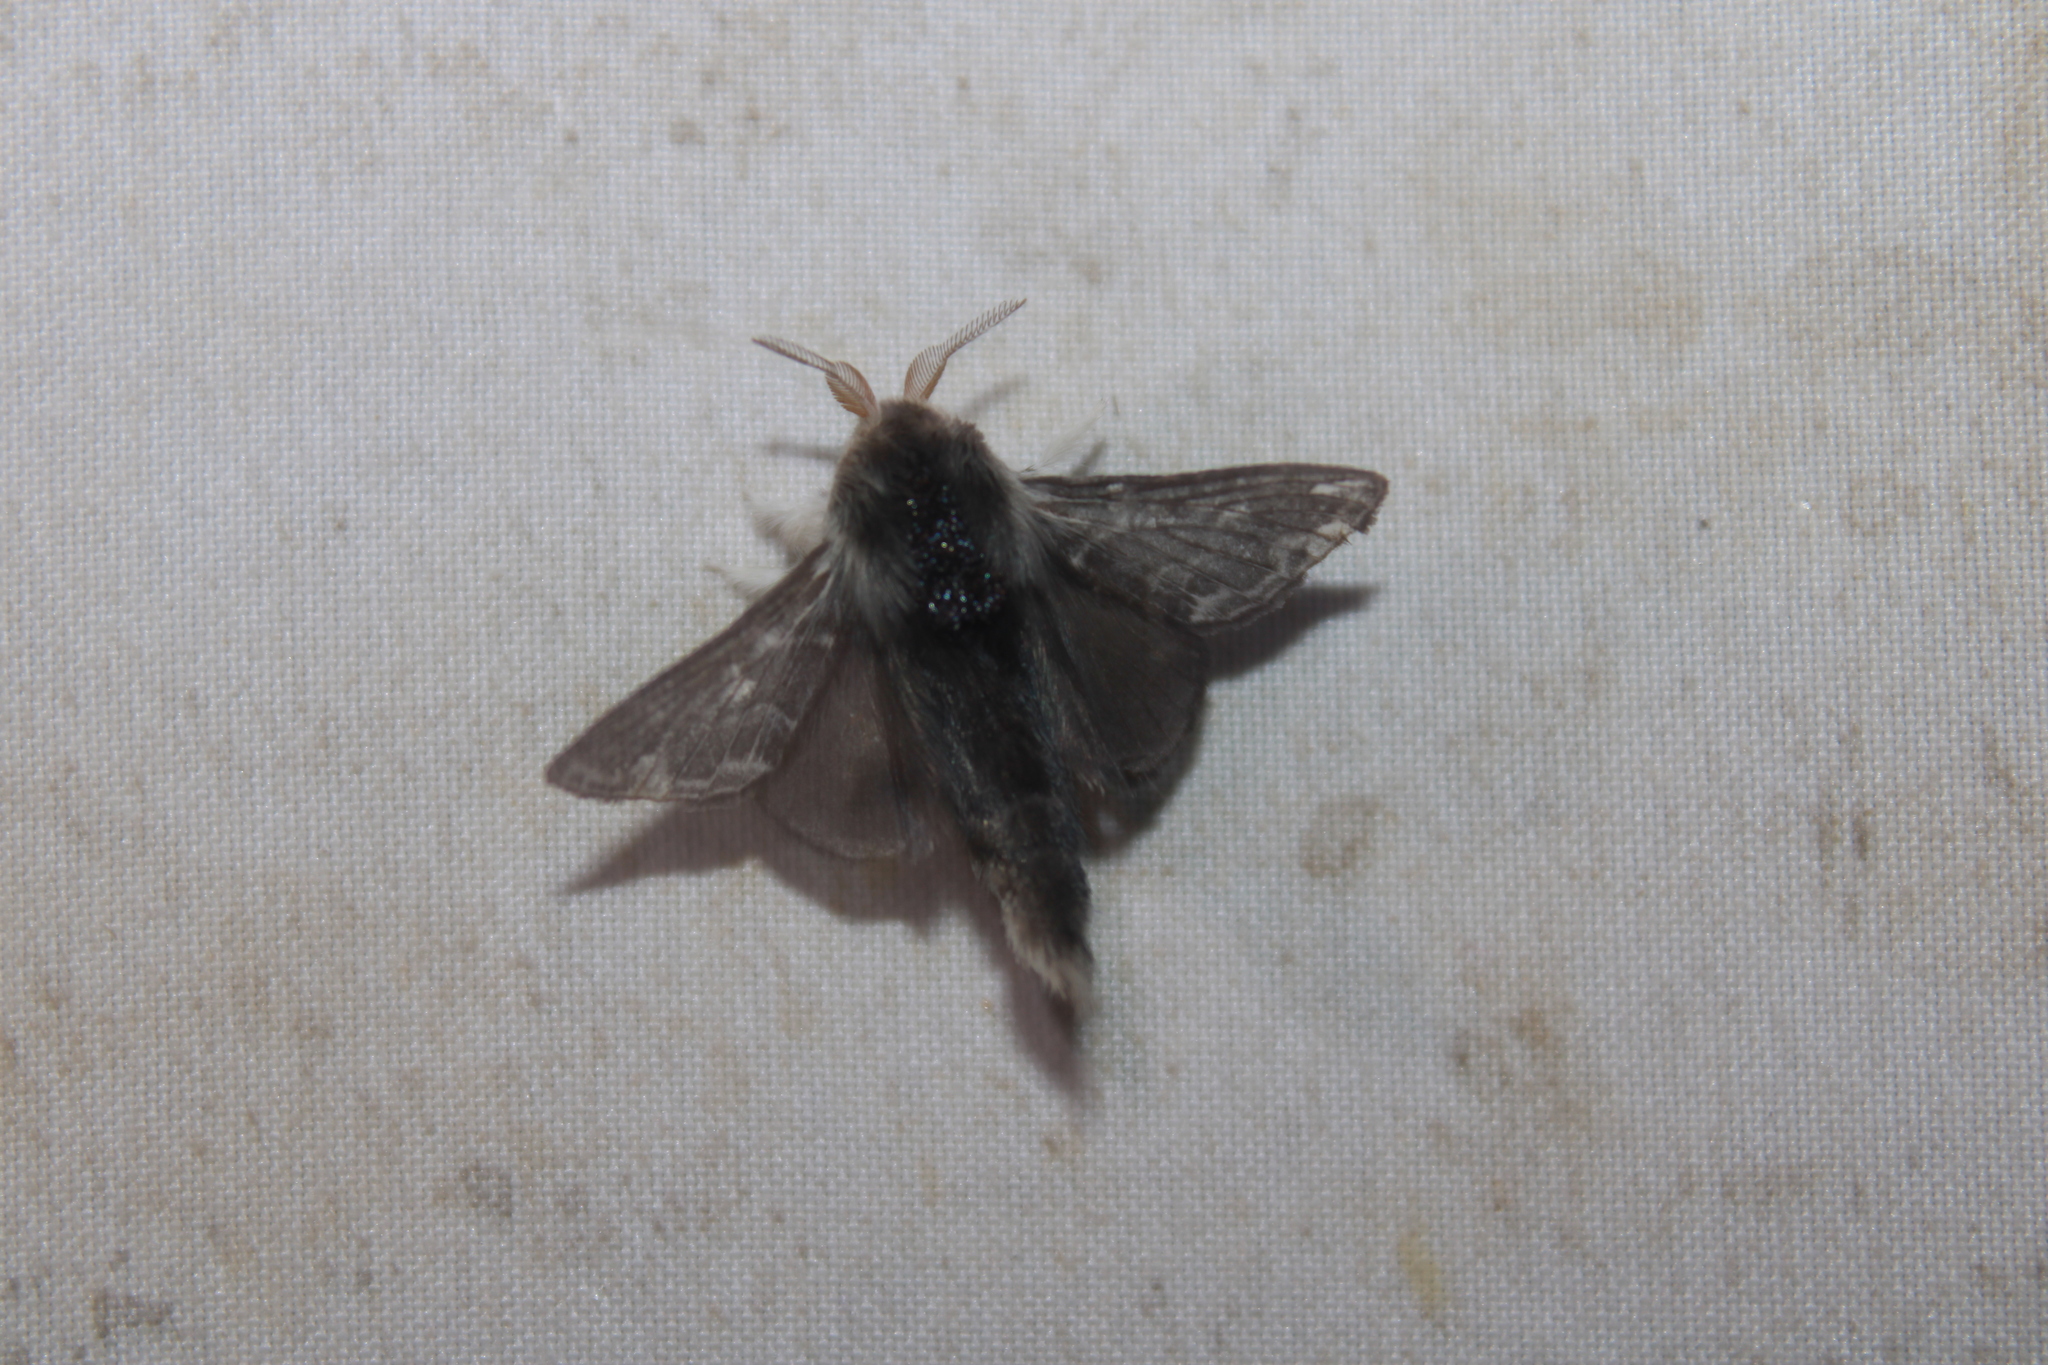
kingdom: Animalia
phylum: Arthropoda
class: Insecta
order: Lepidoptera
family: Lasiocampidae
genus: Tolype
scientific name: Tolype laricis
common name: Larch tolype moth
